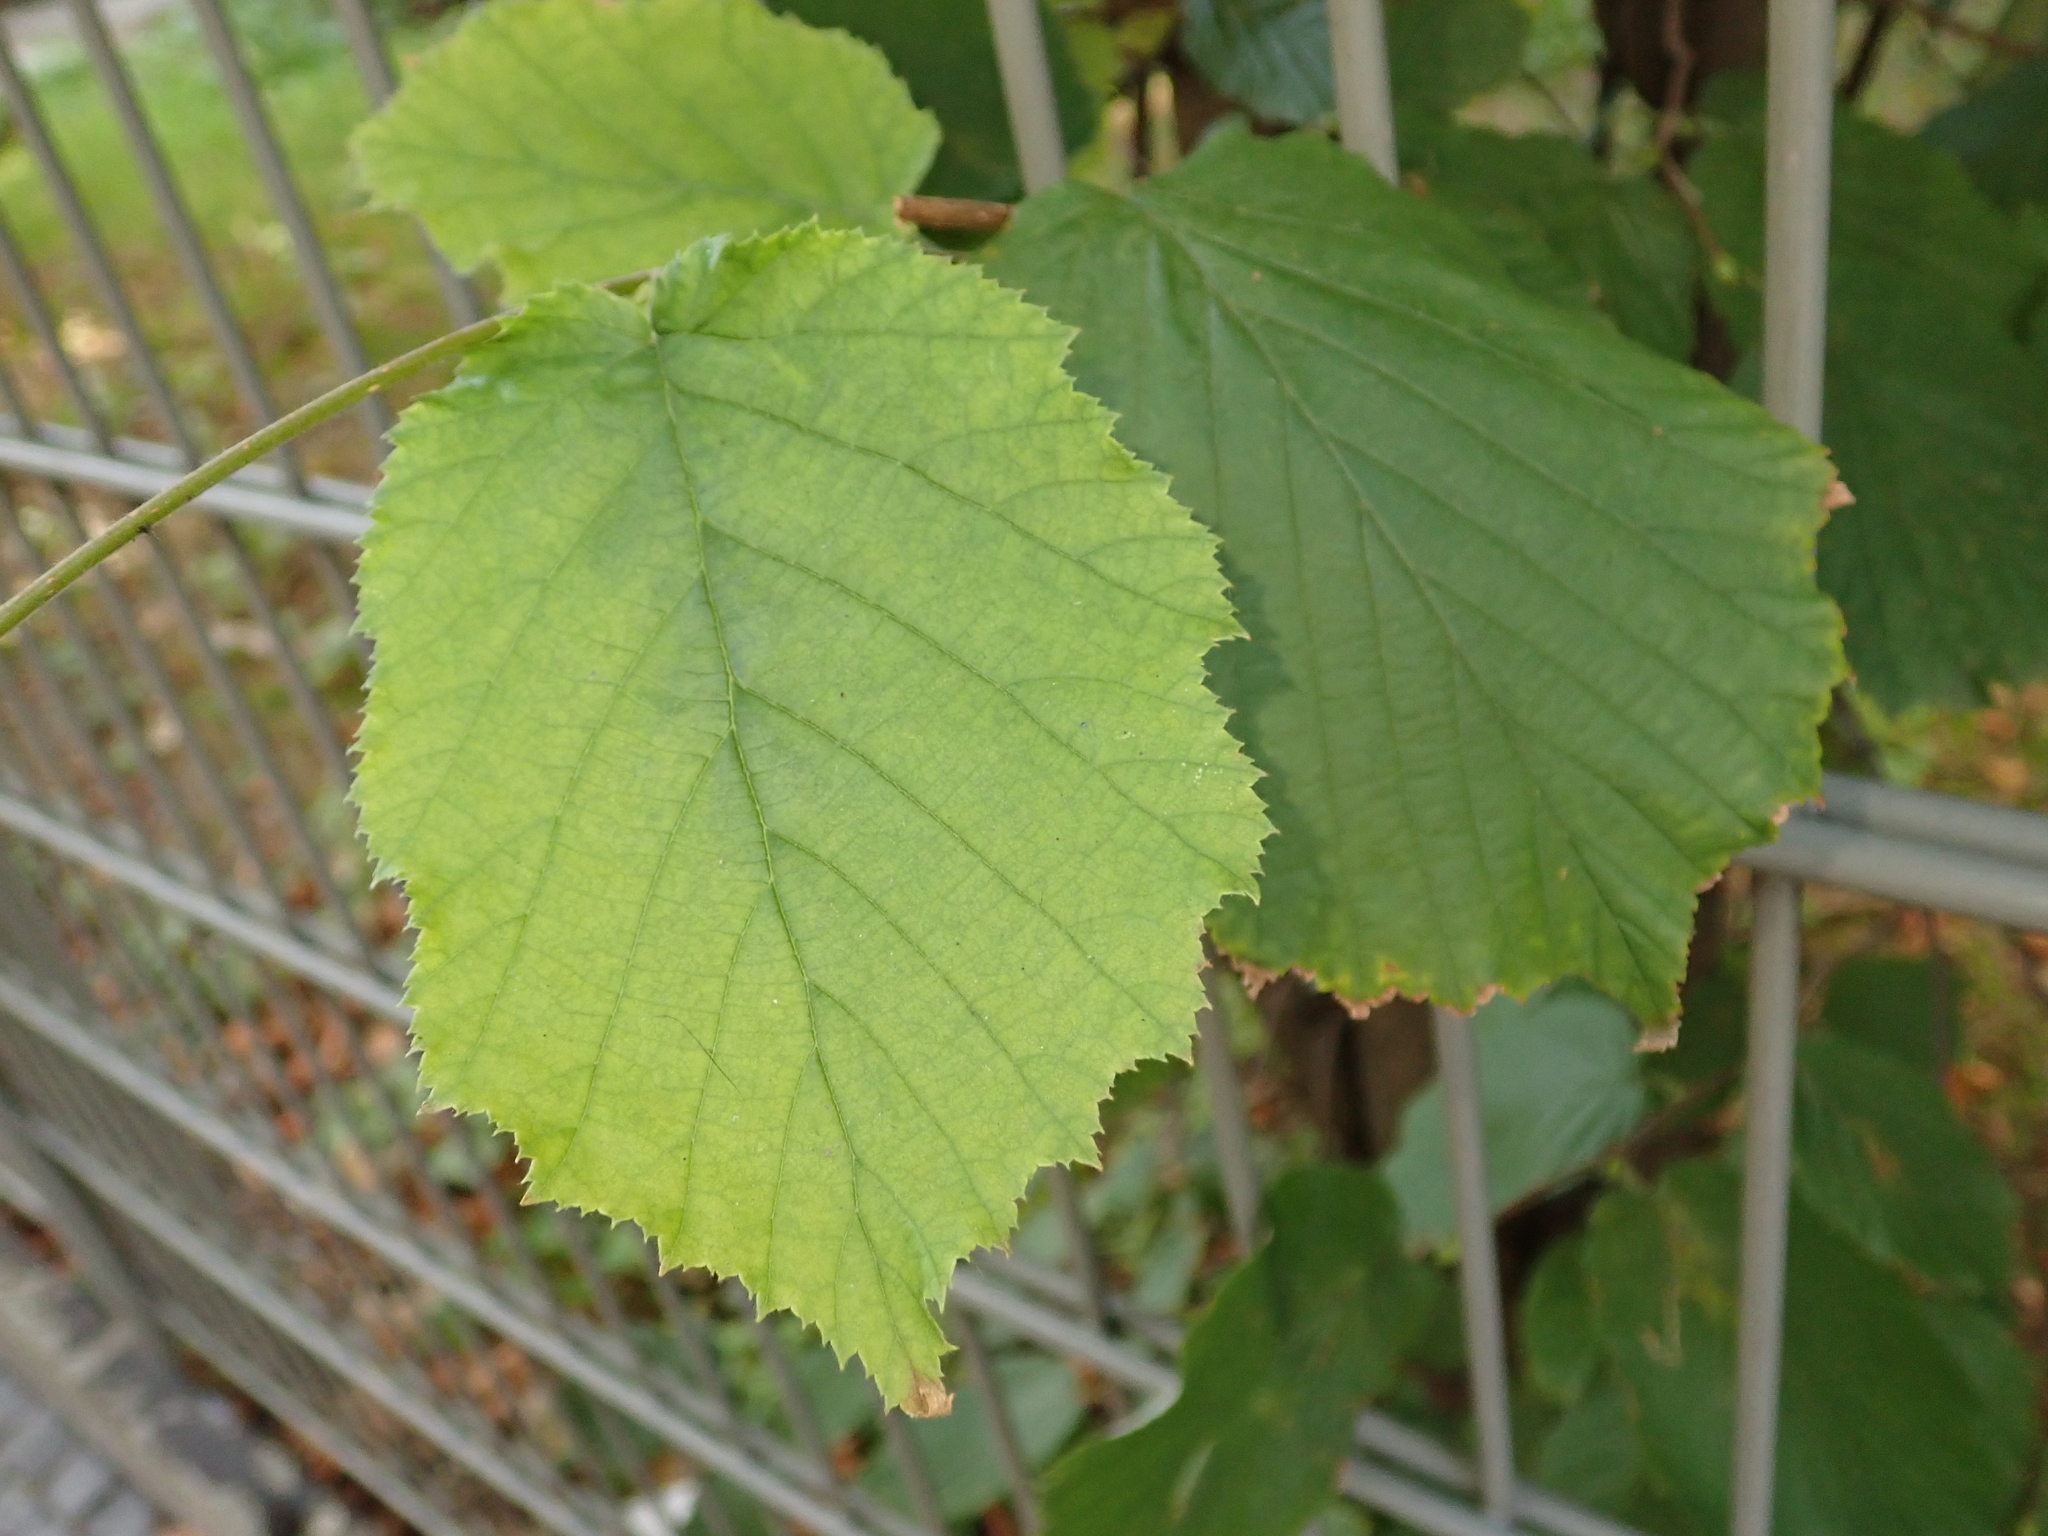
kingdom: Plantae
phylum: Tracheophyta
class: Magnoliopsida
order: Fagales
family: Betulaceae
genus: Corylus
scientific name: Corylus avellana
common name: European hazel
